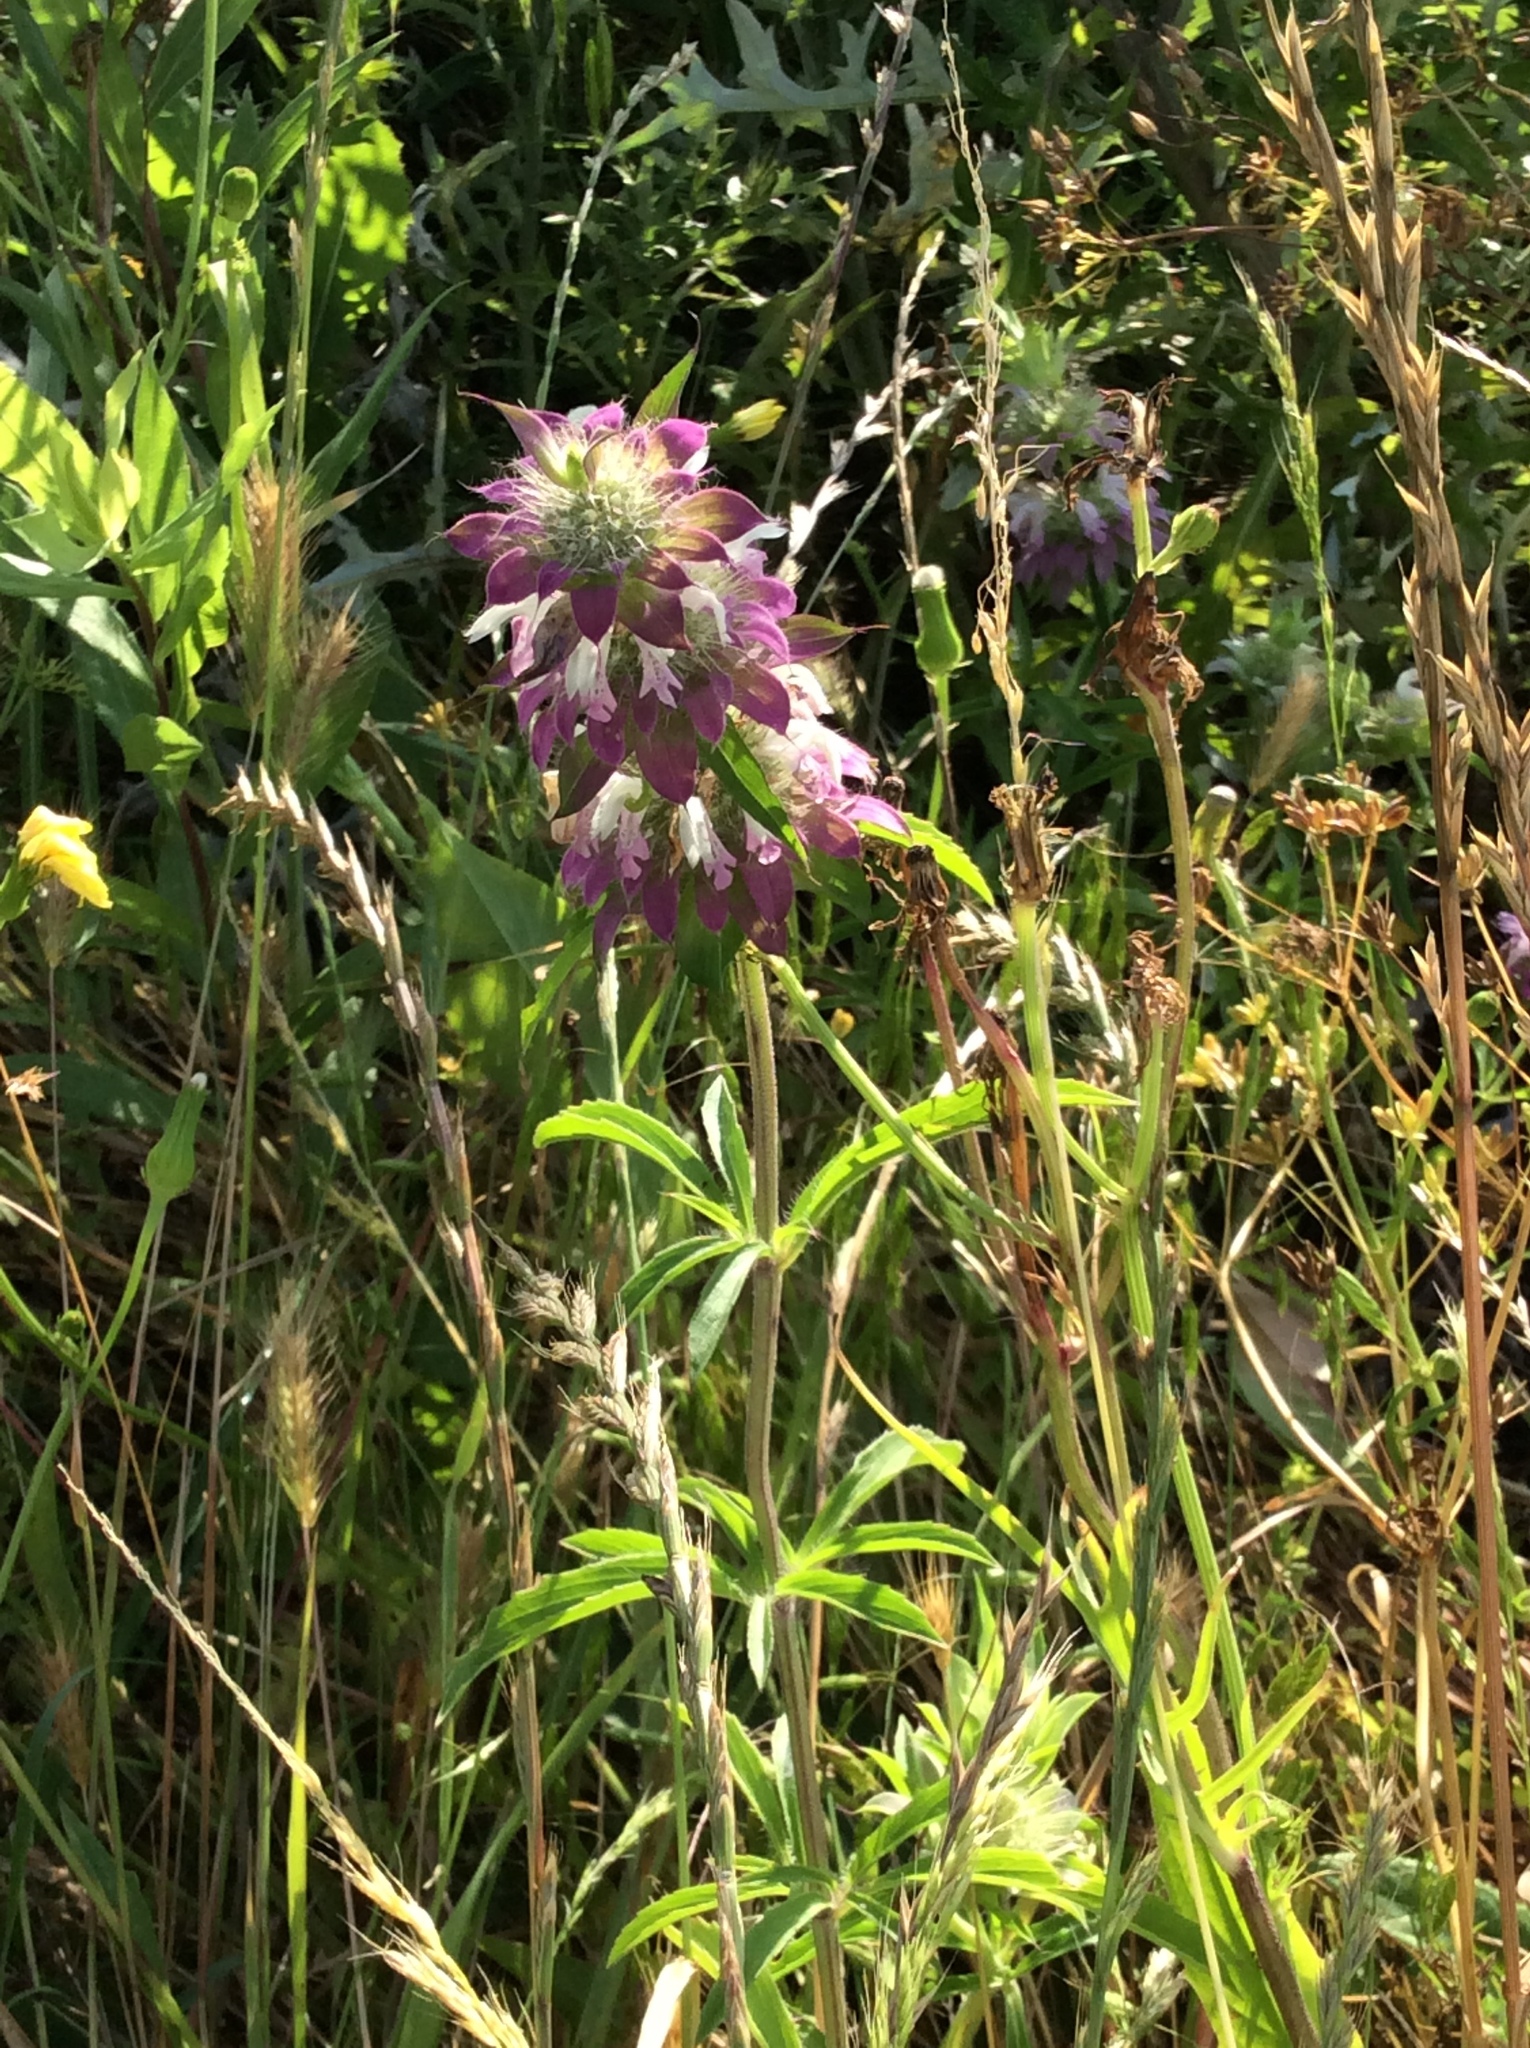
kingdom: Plantae
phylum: Tracheophyta
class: Magnoliopsida
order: Lamiales
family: Lamiaceae
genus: Monarda
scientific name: Monarda citriodora
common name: Lemon beebalm
